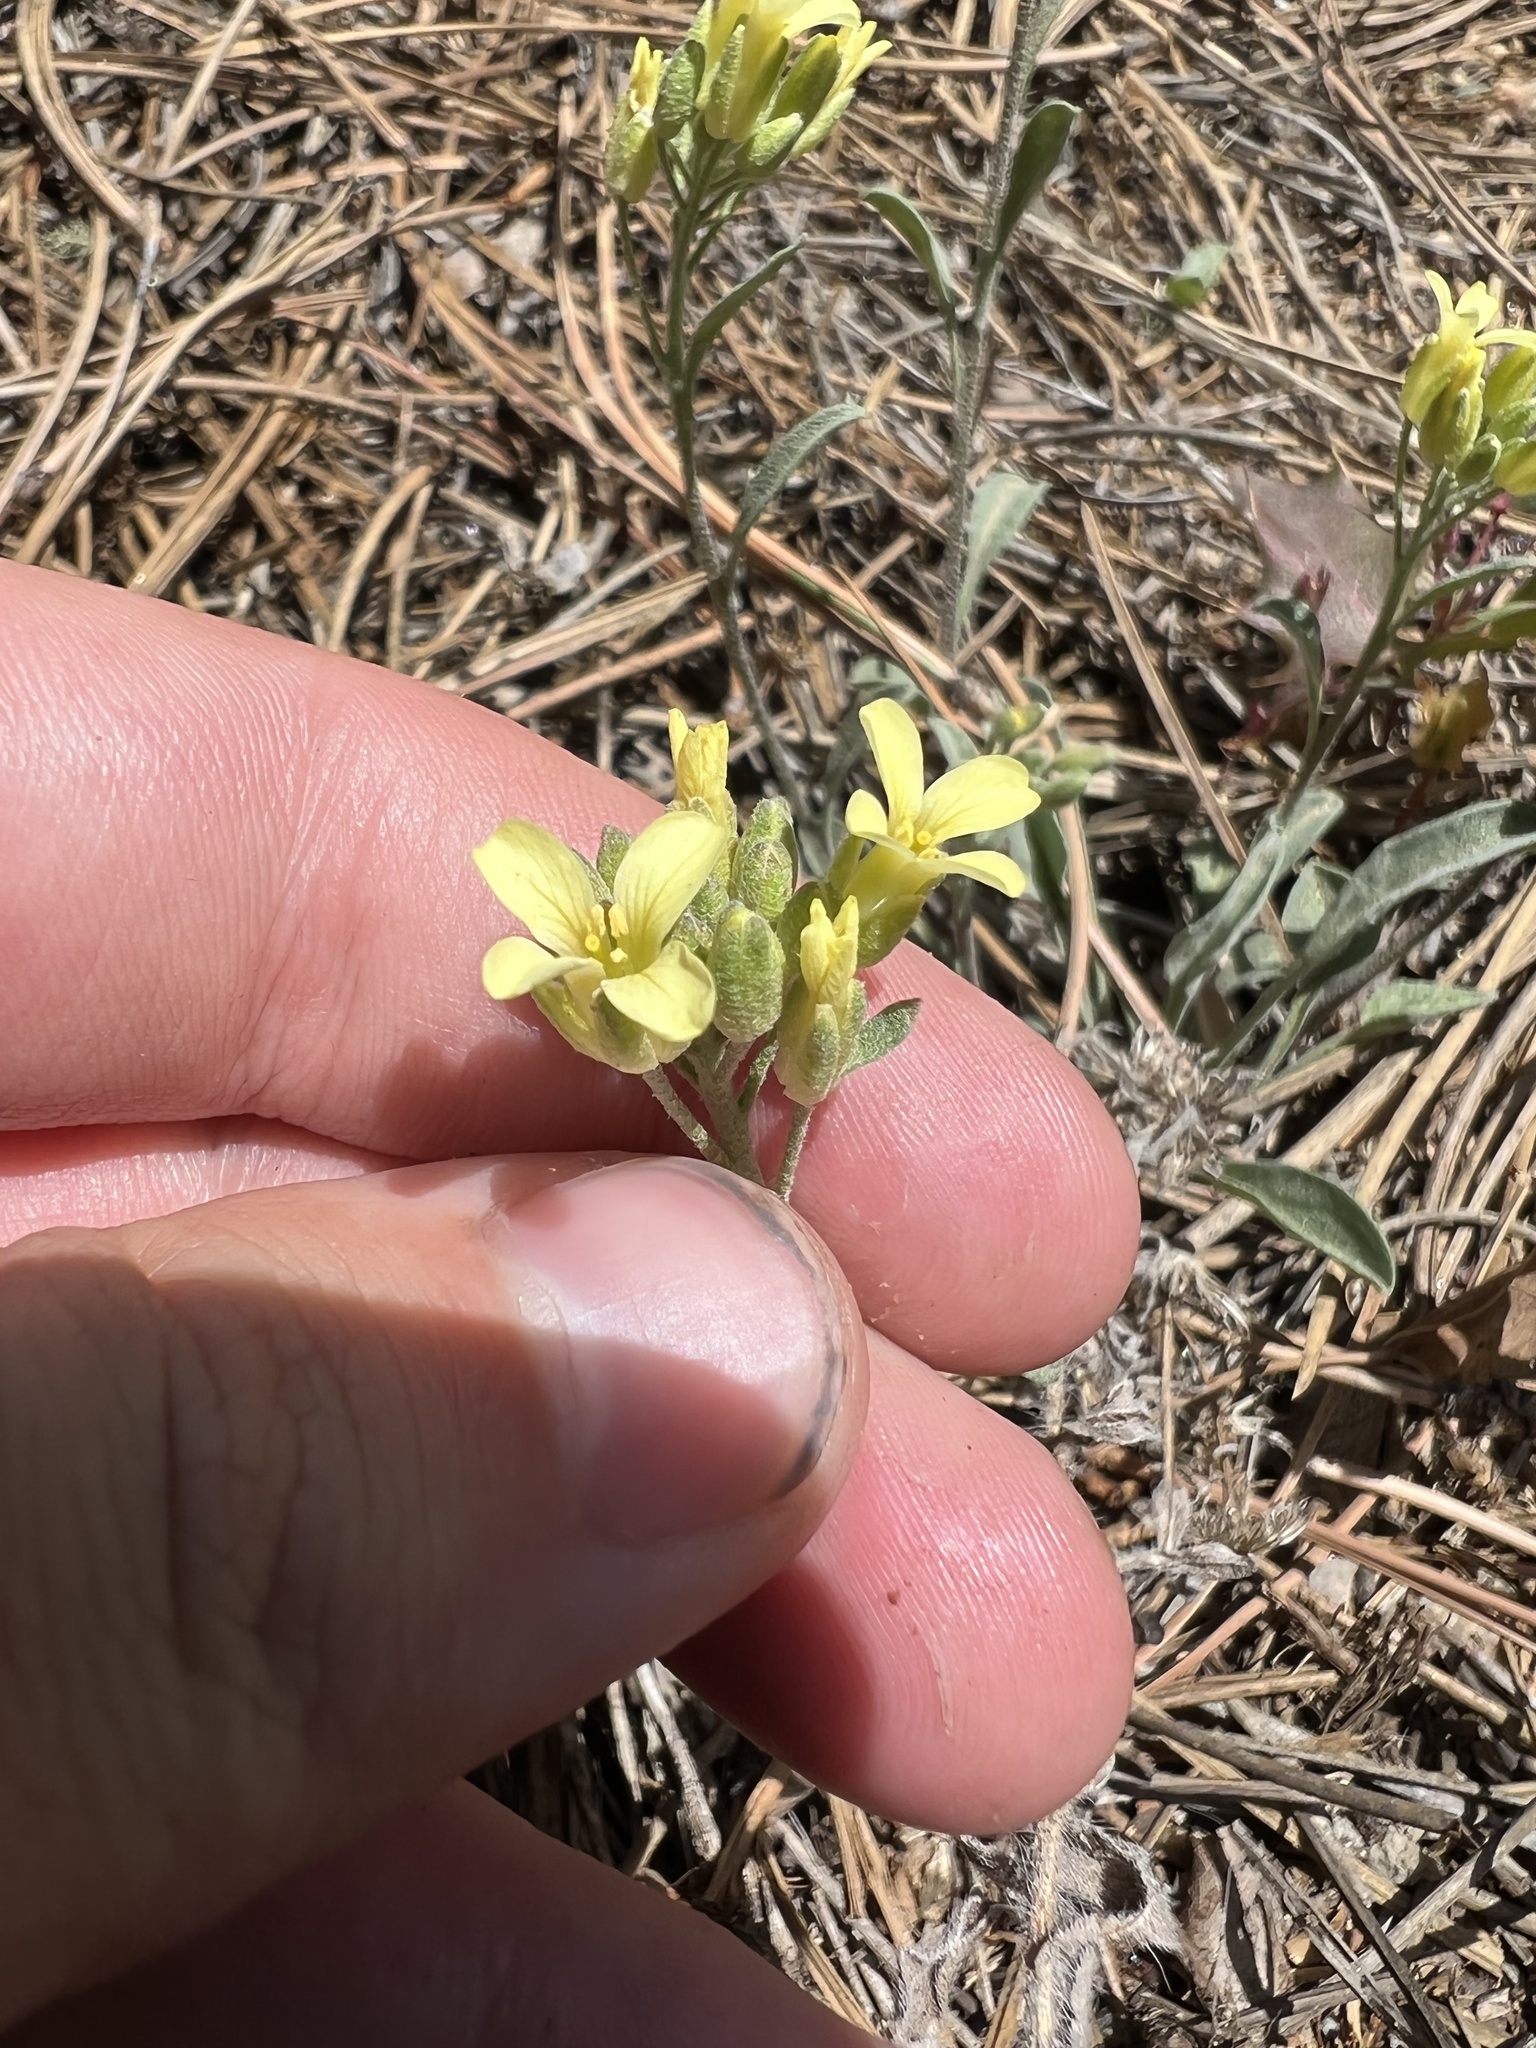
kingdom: Plantae
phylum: Tracheophyta
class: Magnoliopsida
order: Brassicales
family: Brassicaceae
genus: Physaria
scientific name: Physaria montana
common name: Mountain bladderpod
